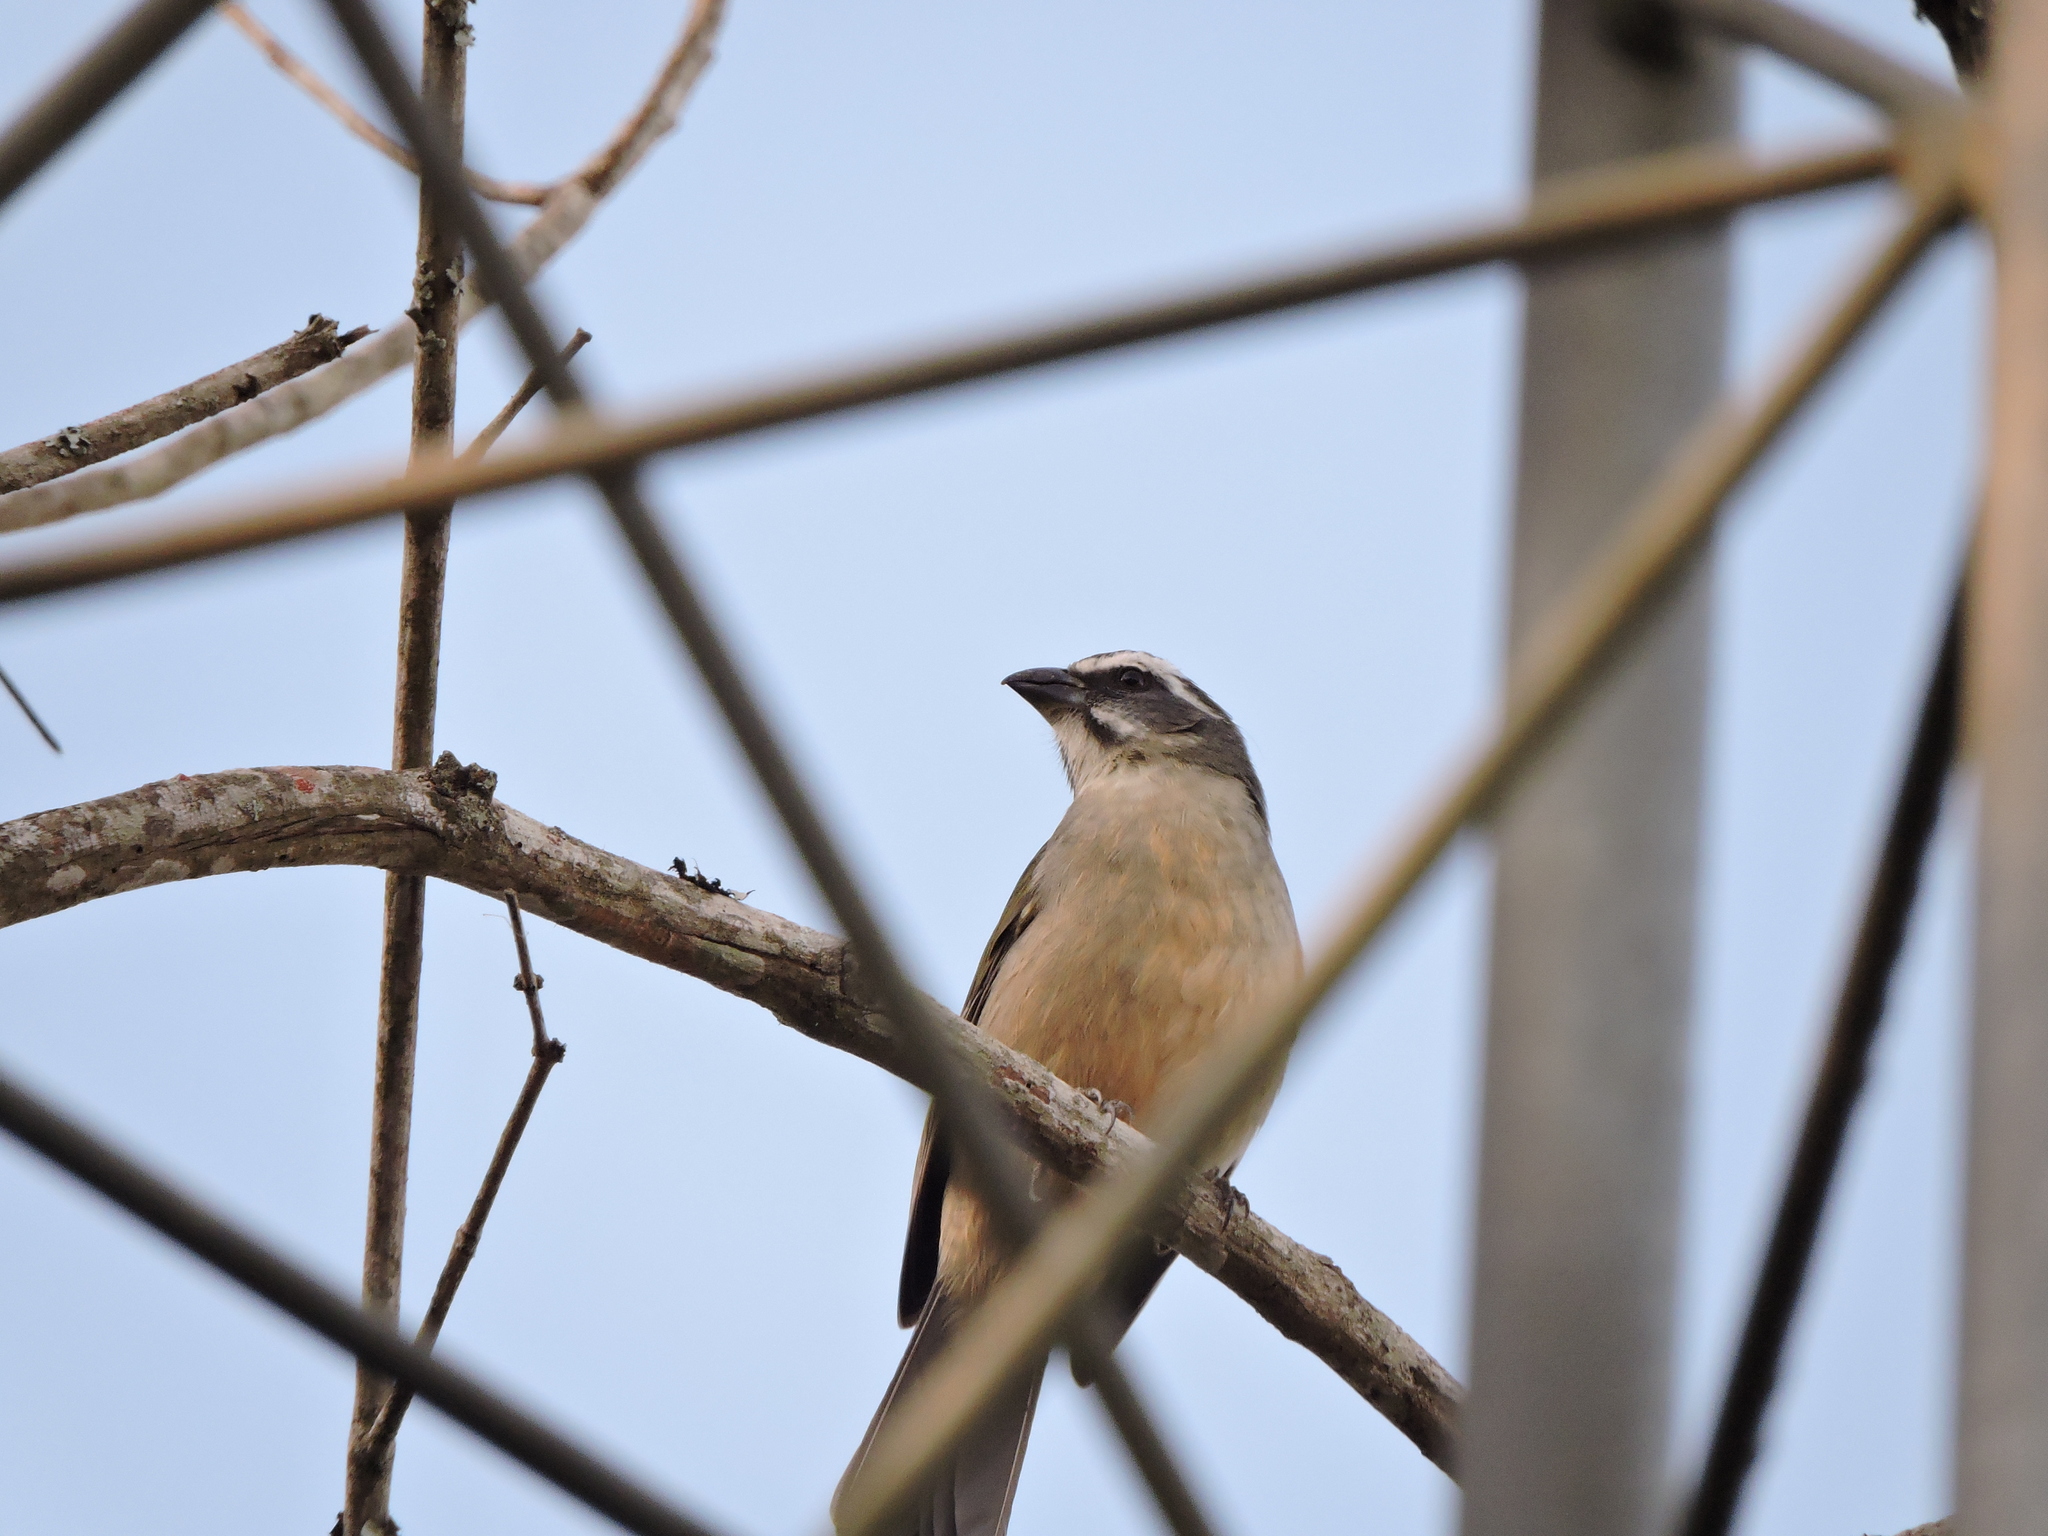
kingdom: Animalia
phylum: Chordata
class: Aves
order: Passeriformes
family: Thraupidae
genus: Saltator
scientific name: Saltator similis
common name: Green-winged saltator
